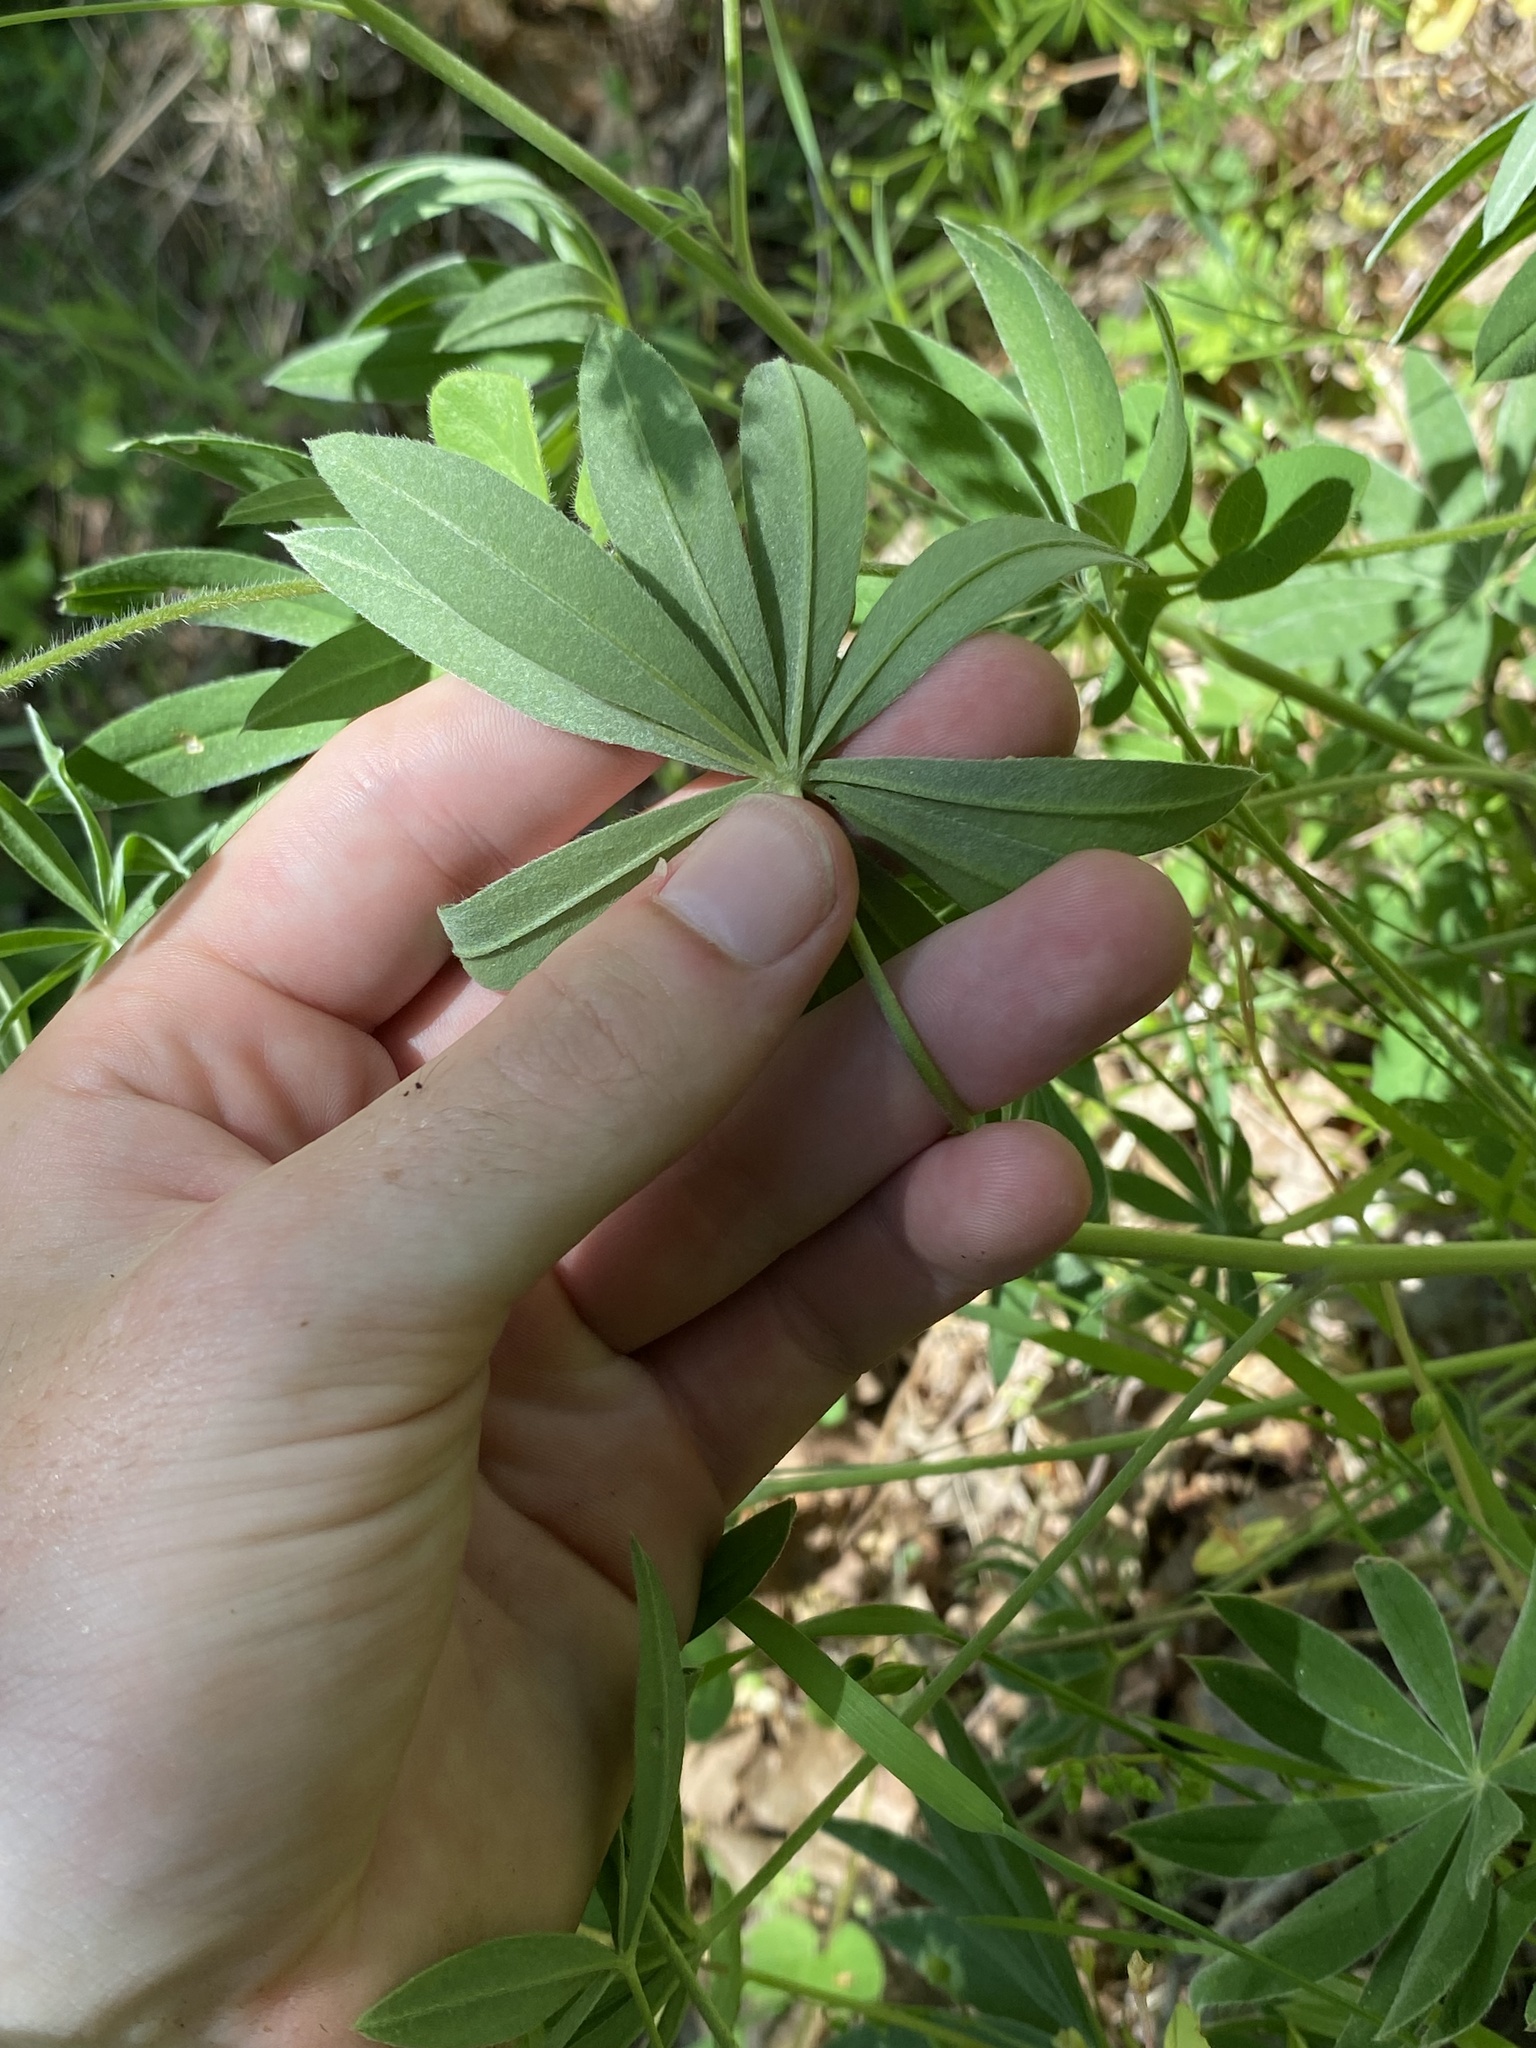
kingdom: Plantae
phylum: Tracheophyta
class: Magnoliopsida
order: Fabales
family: Fabaceae
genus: Lupinus
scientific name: Lupinus oreganus
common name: Kincaid's lupine
